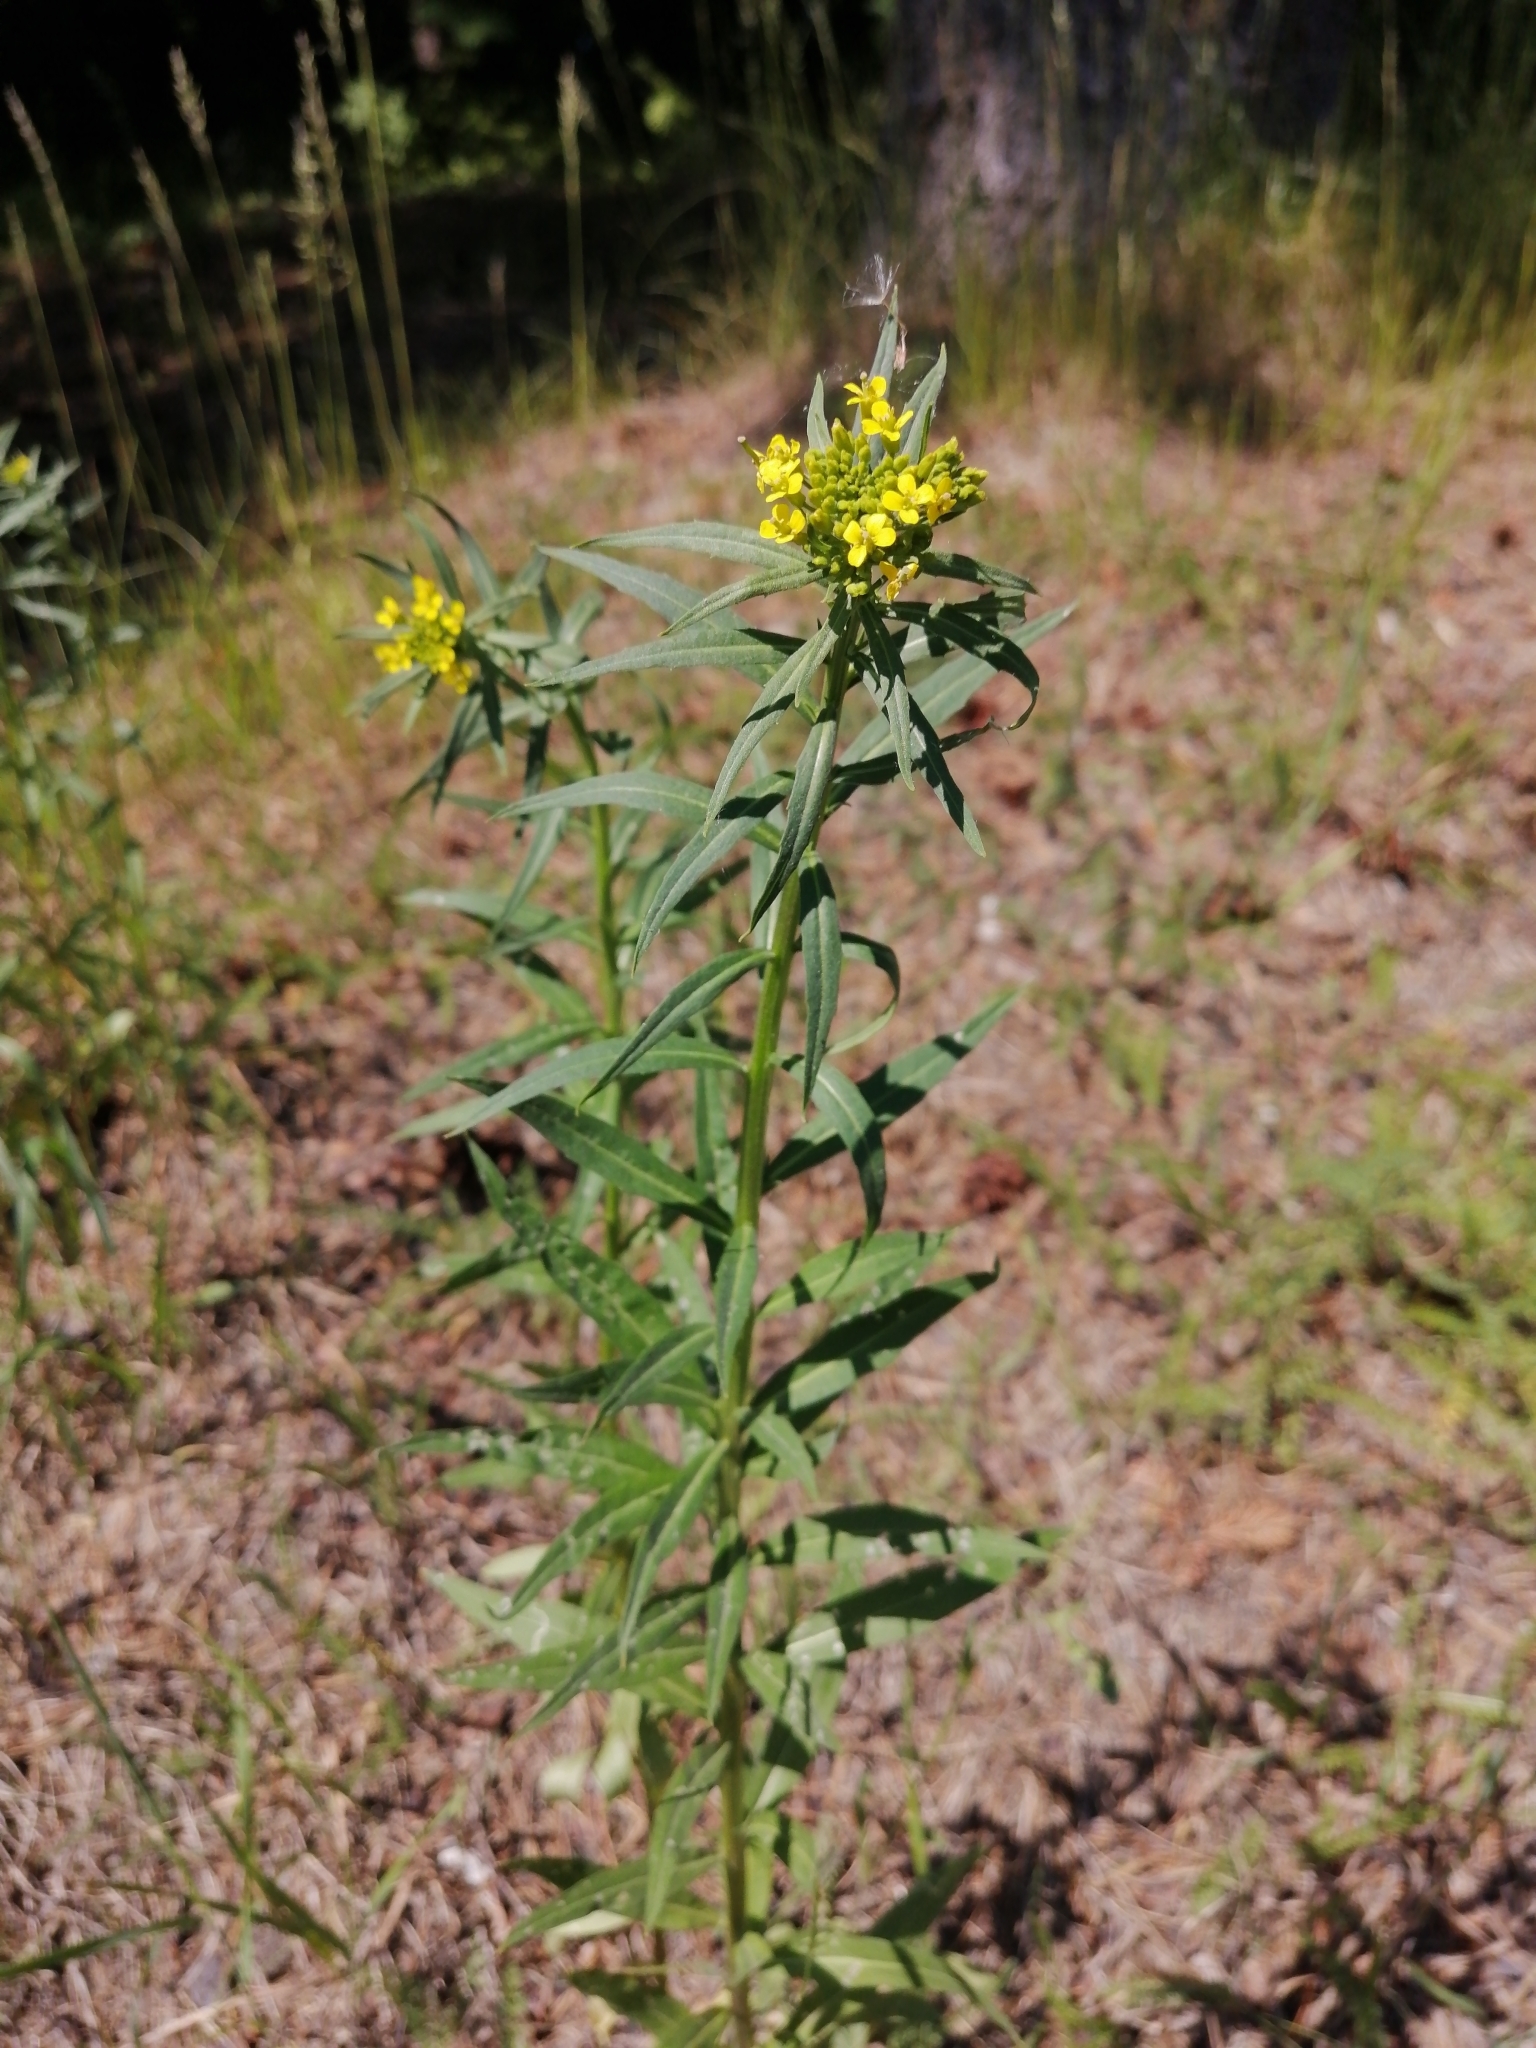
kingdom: Plantae
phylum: Tracheophyta
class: Magnoliopsida
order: Brassicales
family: Brassicaceae
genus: Erysimum
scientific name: Erysimum cheiranthoides
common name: Treacle mustard
